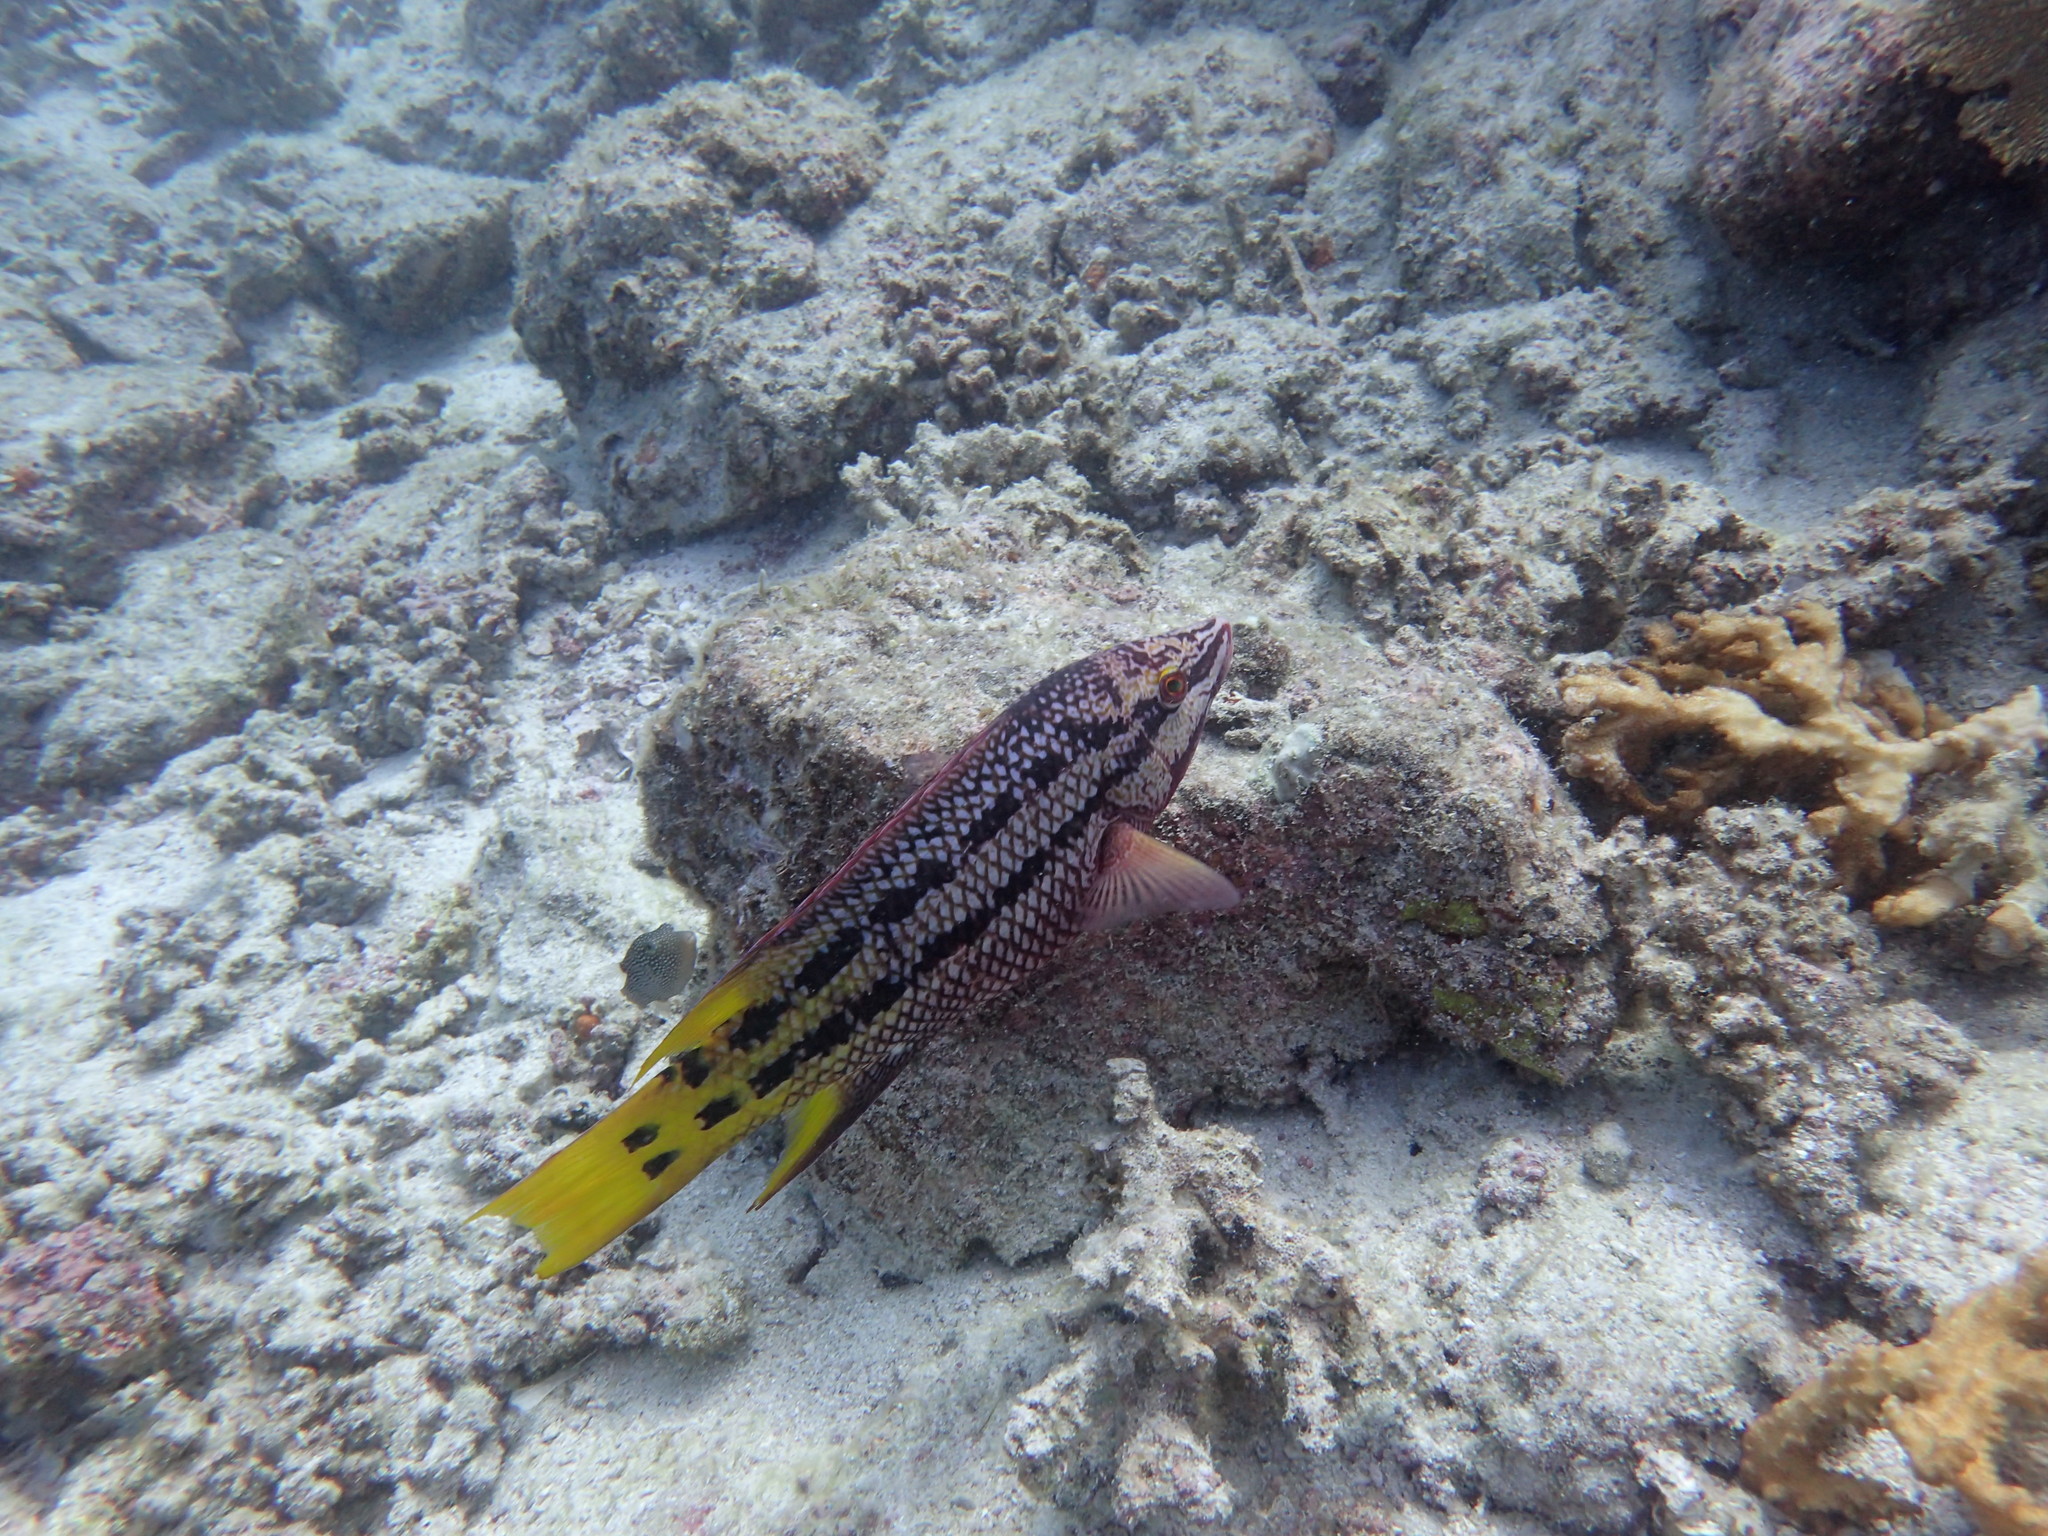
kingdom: Animalia
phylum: Chordata
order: Perciformes
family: Labridae
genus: Bodianus
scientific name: Bodianus diplotaenia
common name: Mexican hogfish
